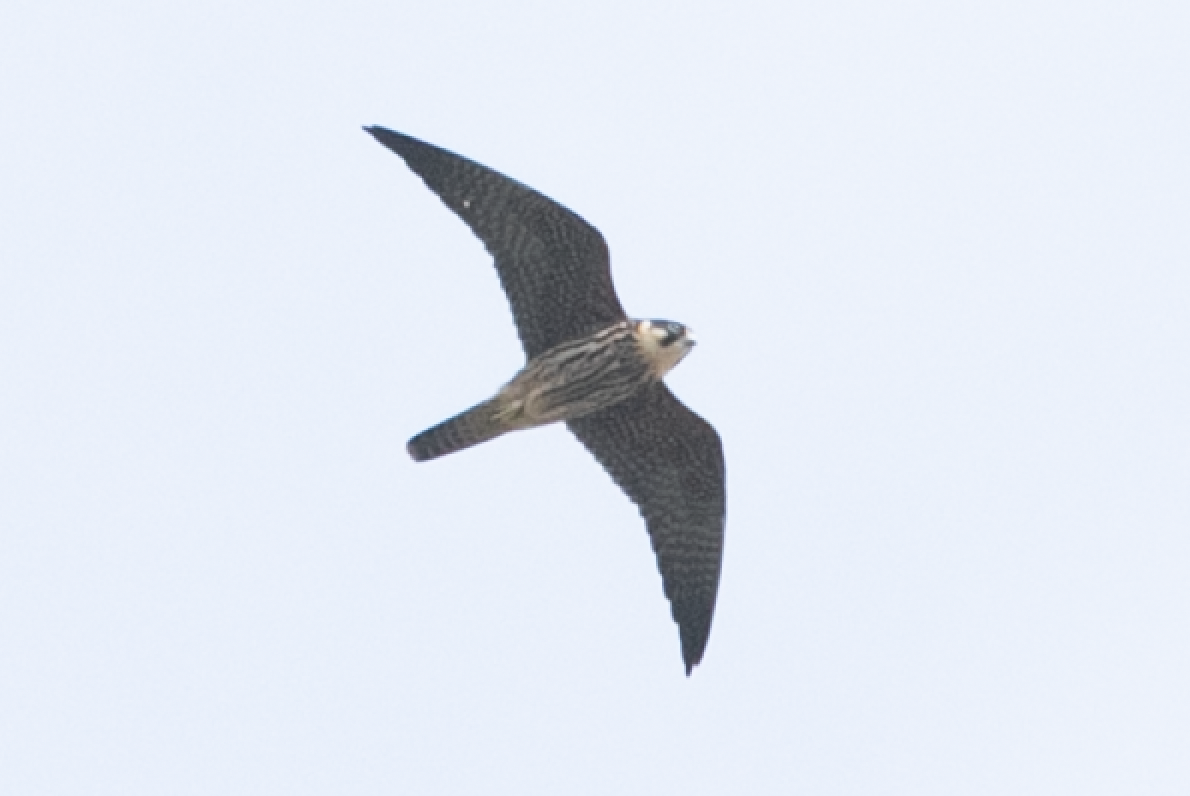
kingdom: Animalia
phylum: Chordata
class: Aves
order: Falconiformes
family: Falconidae
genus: Falco
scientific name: Falco subbuteo
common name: Eurasian hobby
